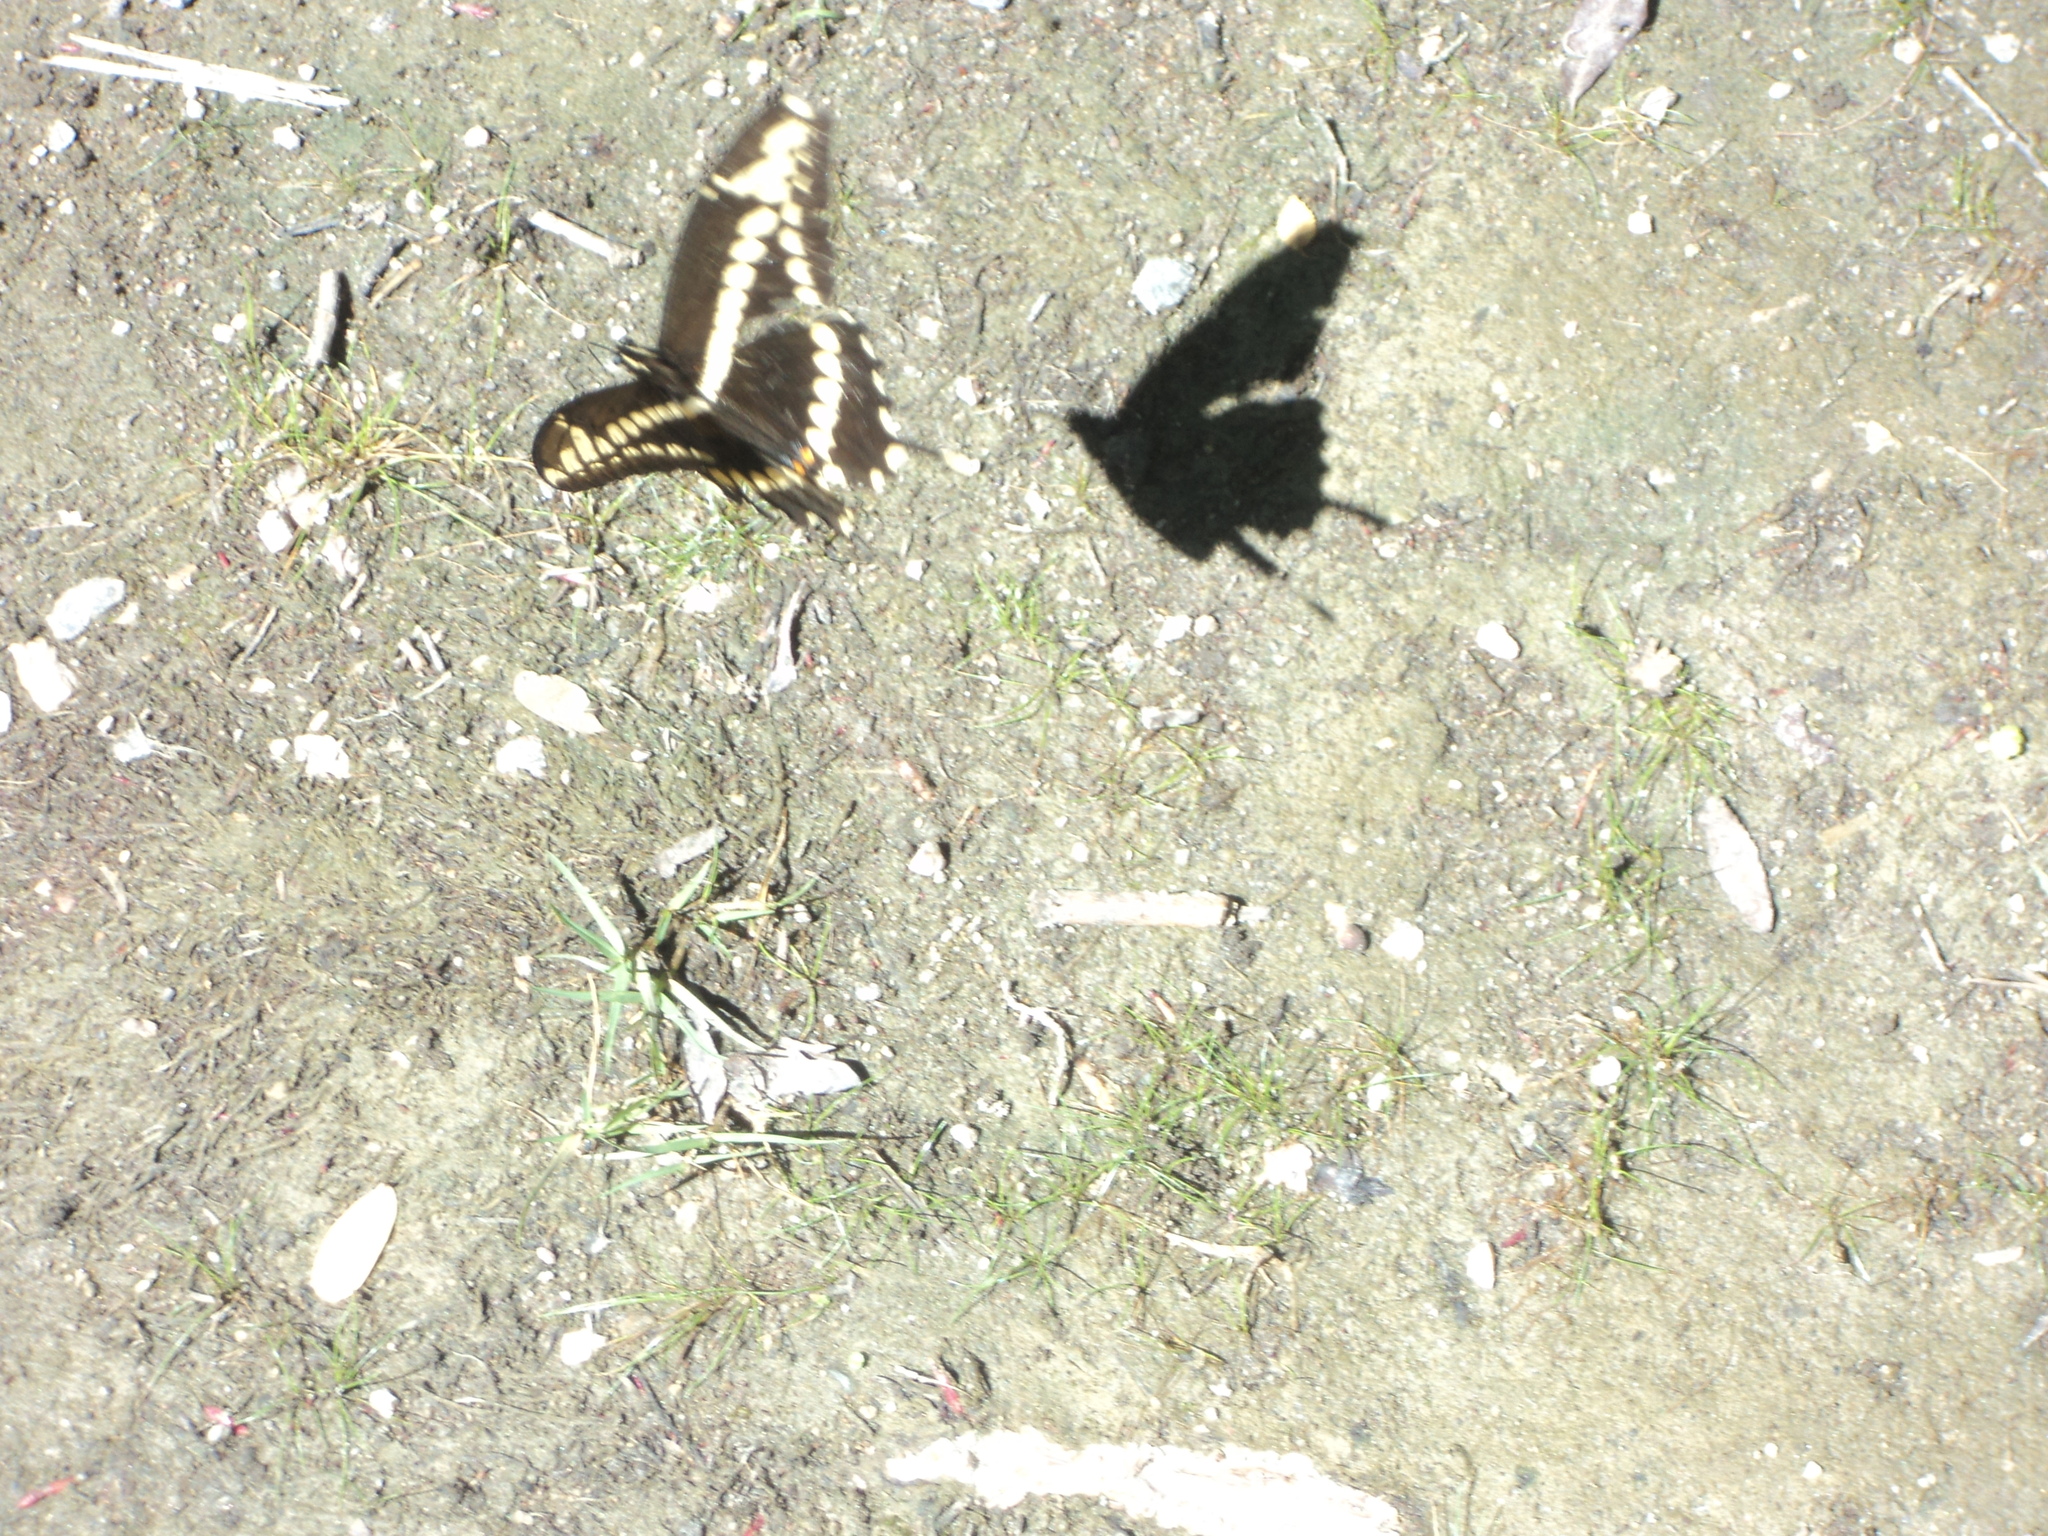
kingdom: Animalia
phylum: Arthropoda
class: Insecta
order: Lepidoptera
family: Papilionidae
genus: Papilio
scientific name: Papilio thoas
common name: King swallowtail
